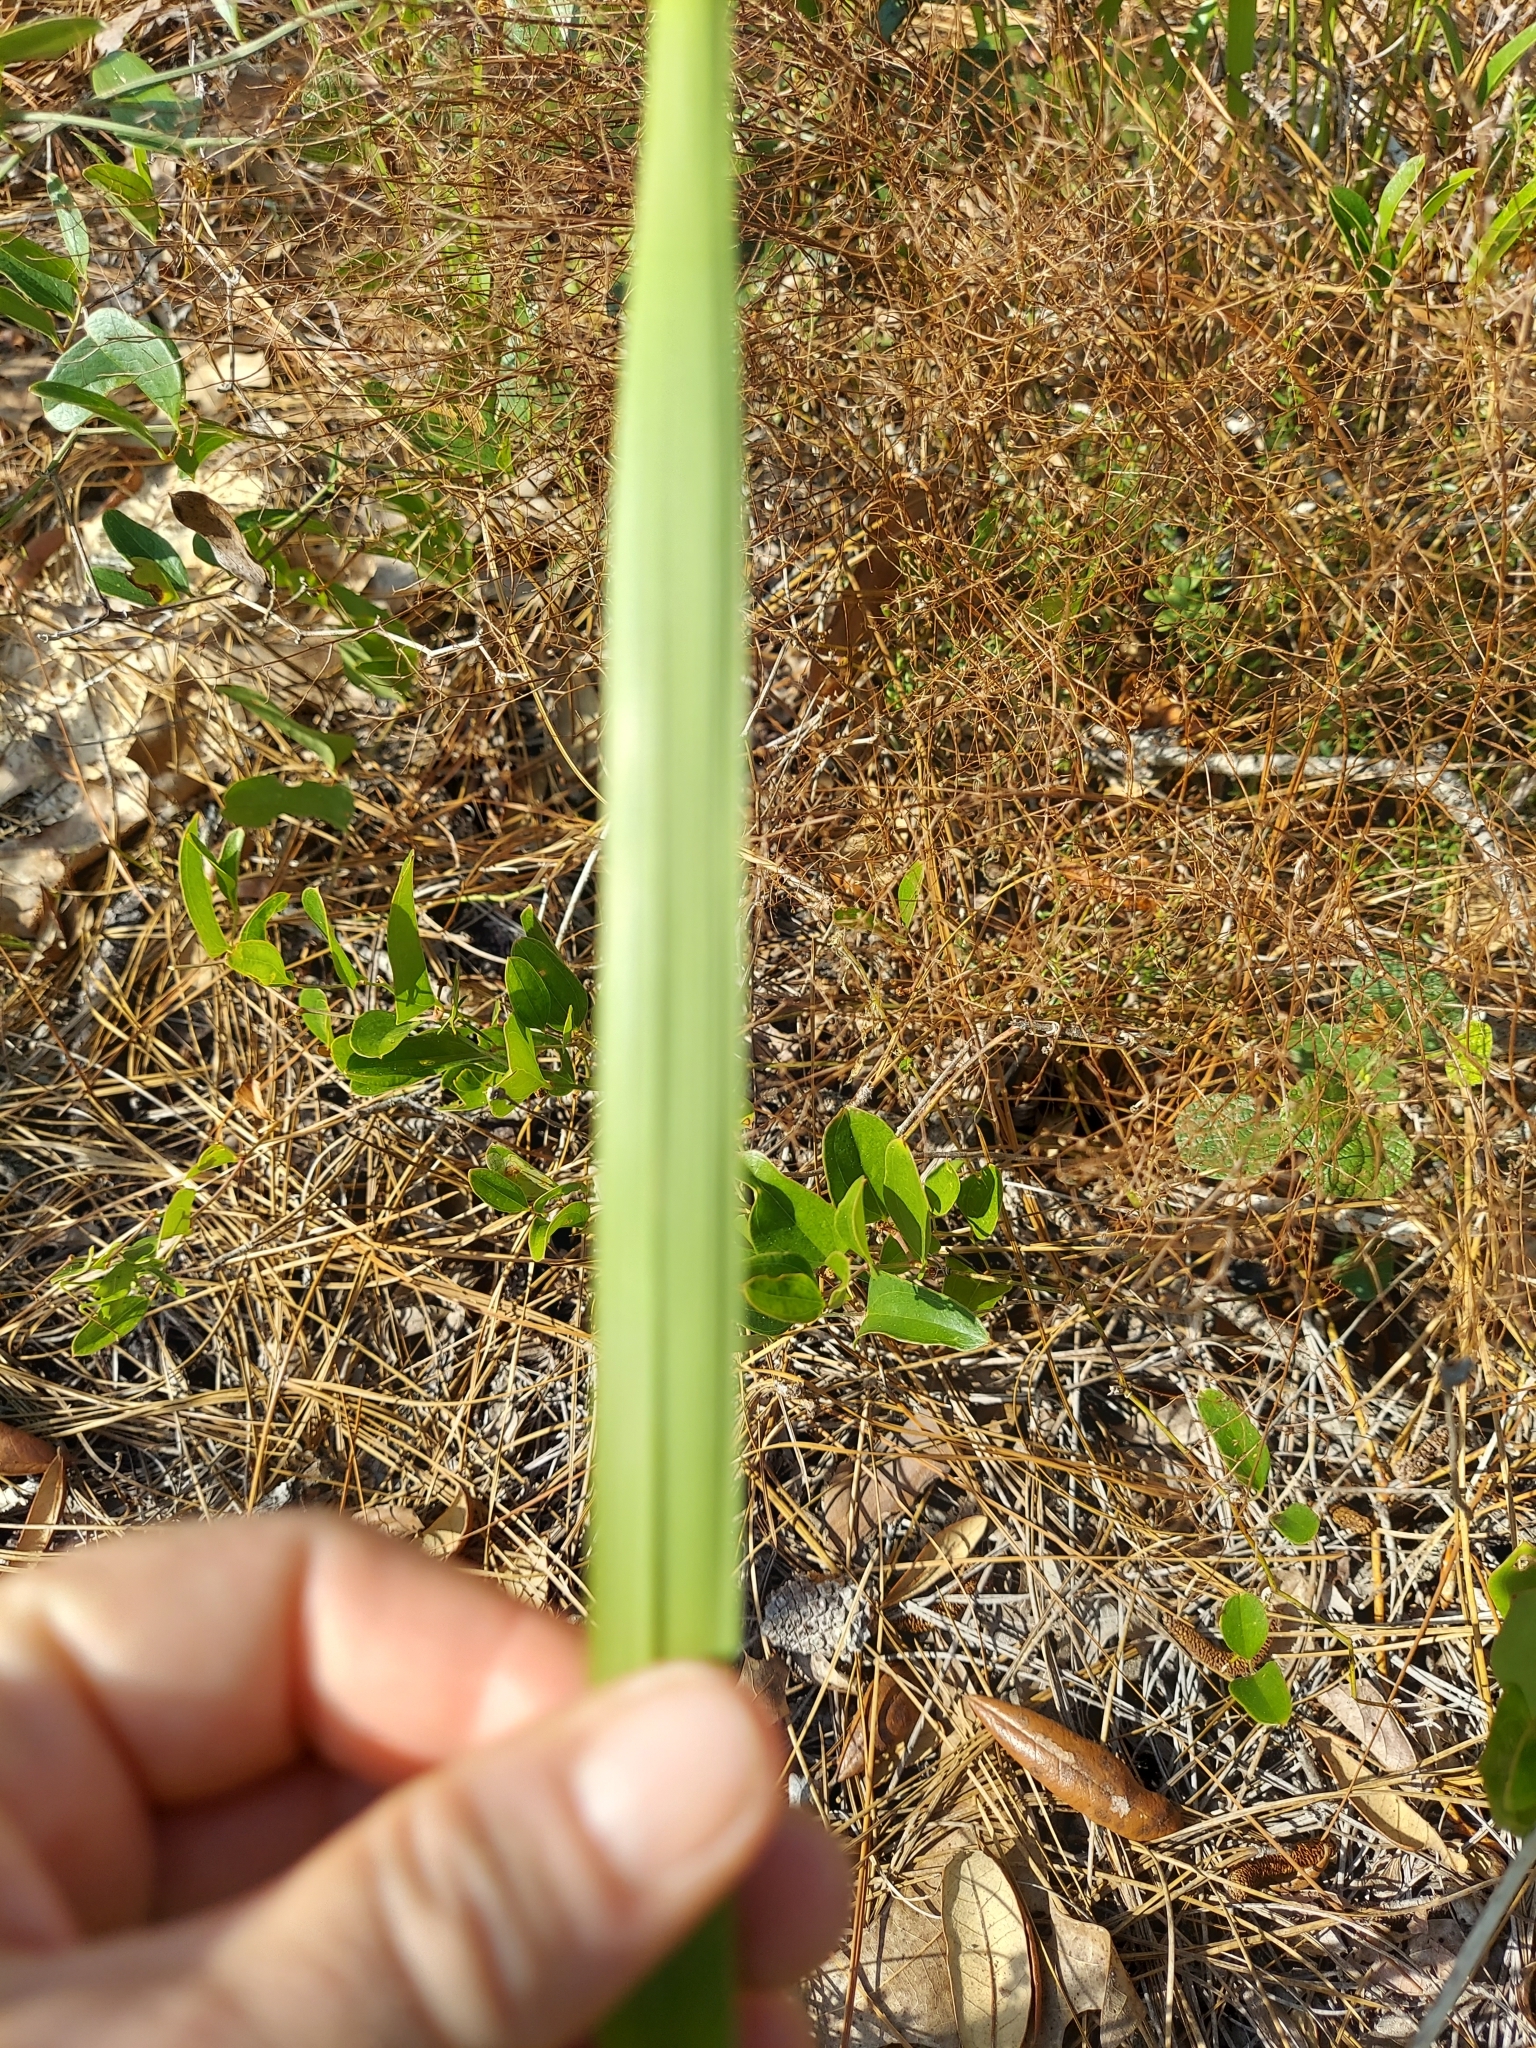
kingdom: Plantae
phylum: Tracheophyta
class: Liliopsida
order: Poales
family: Poaceae
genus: Imperata
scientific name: Imperata cylindrica
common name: Cogongrass
